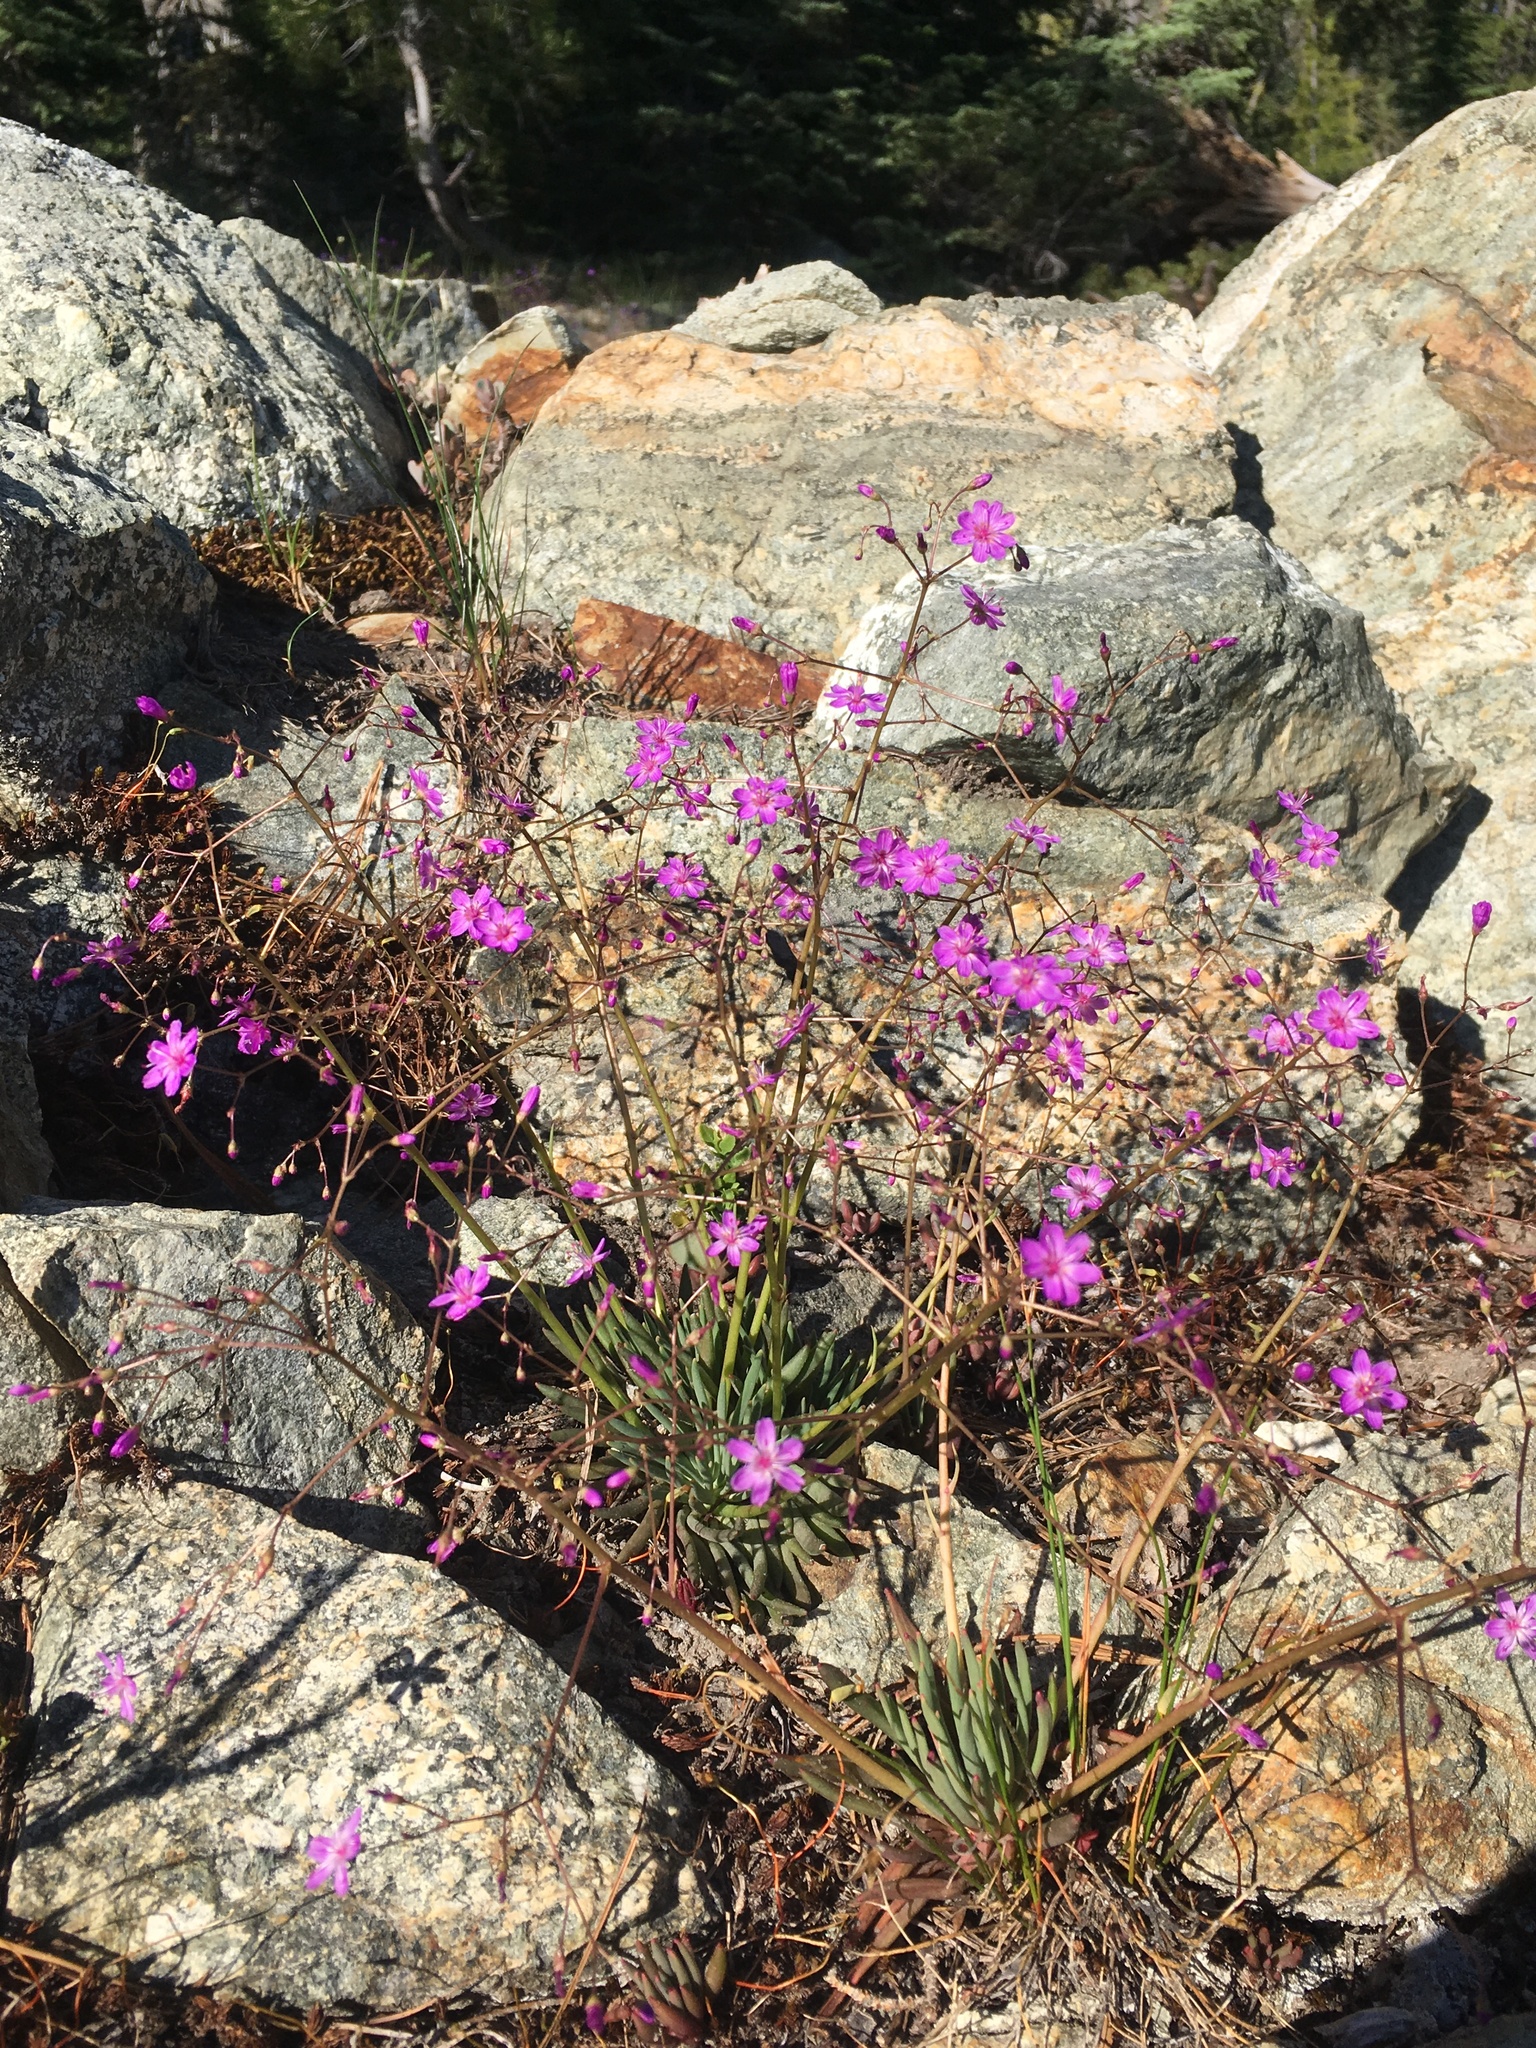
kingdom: Plantae
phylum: Tracheophyta
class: Magnoliopsida
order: Caryophyllales
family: Montiaceae
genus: Lewisia
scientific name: Lewisia leeana
